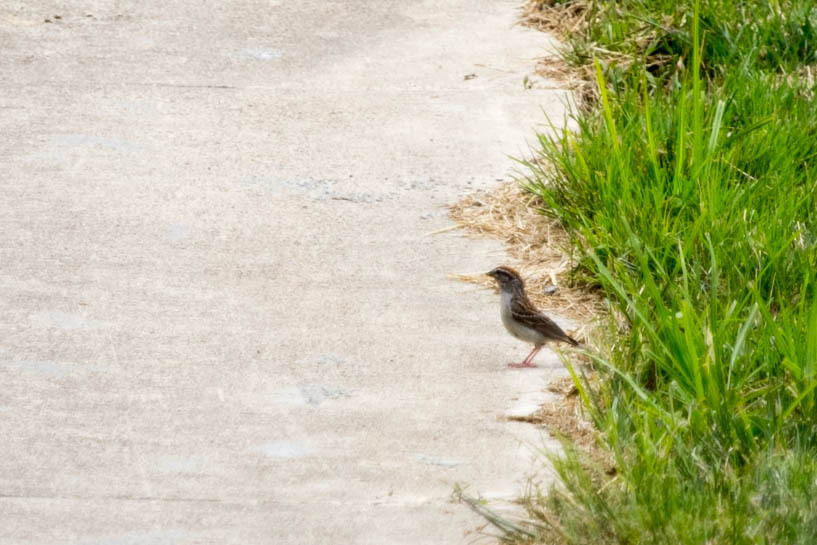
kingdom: Animalia
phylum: Chordata
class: Aves
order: Passeriformes
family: Passerellidae
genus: Spizella
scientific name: Spizella passerina
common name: Chipping sparrow
